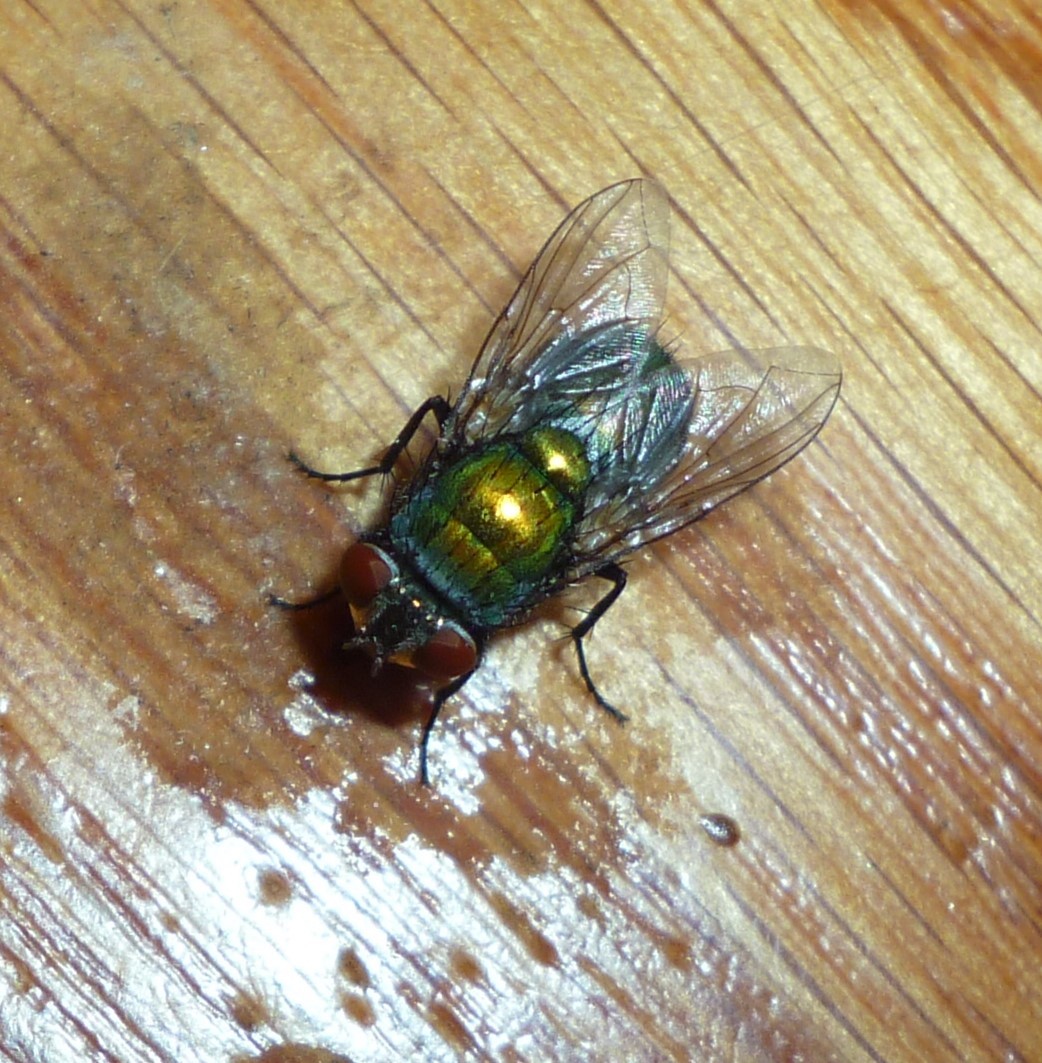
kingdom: Animalia
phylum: Arthropoda
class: Insecta
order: Diptera
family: Calliphoridae
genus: Lucilia
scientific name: Lucilia sericata
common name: Blow fly
